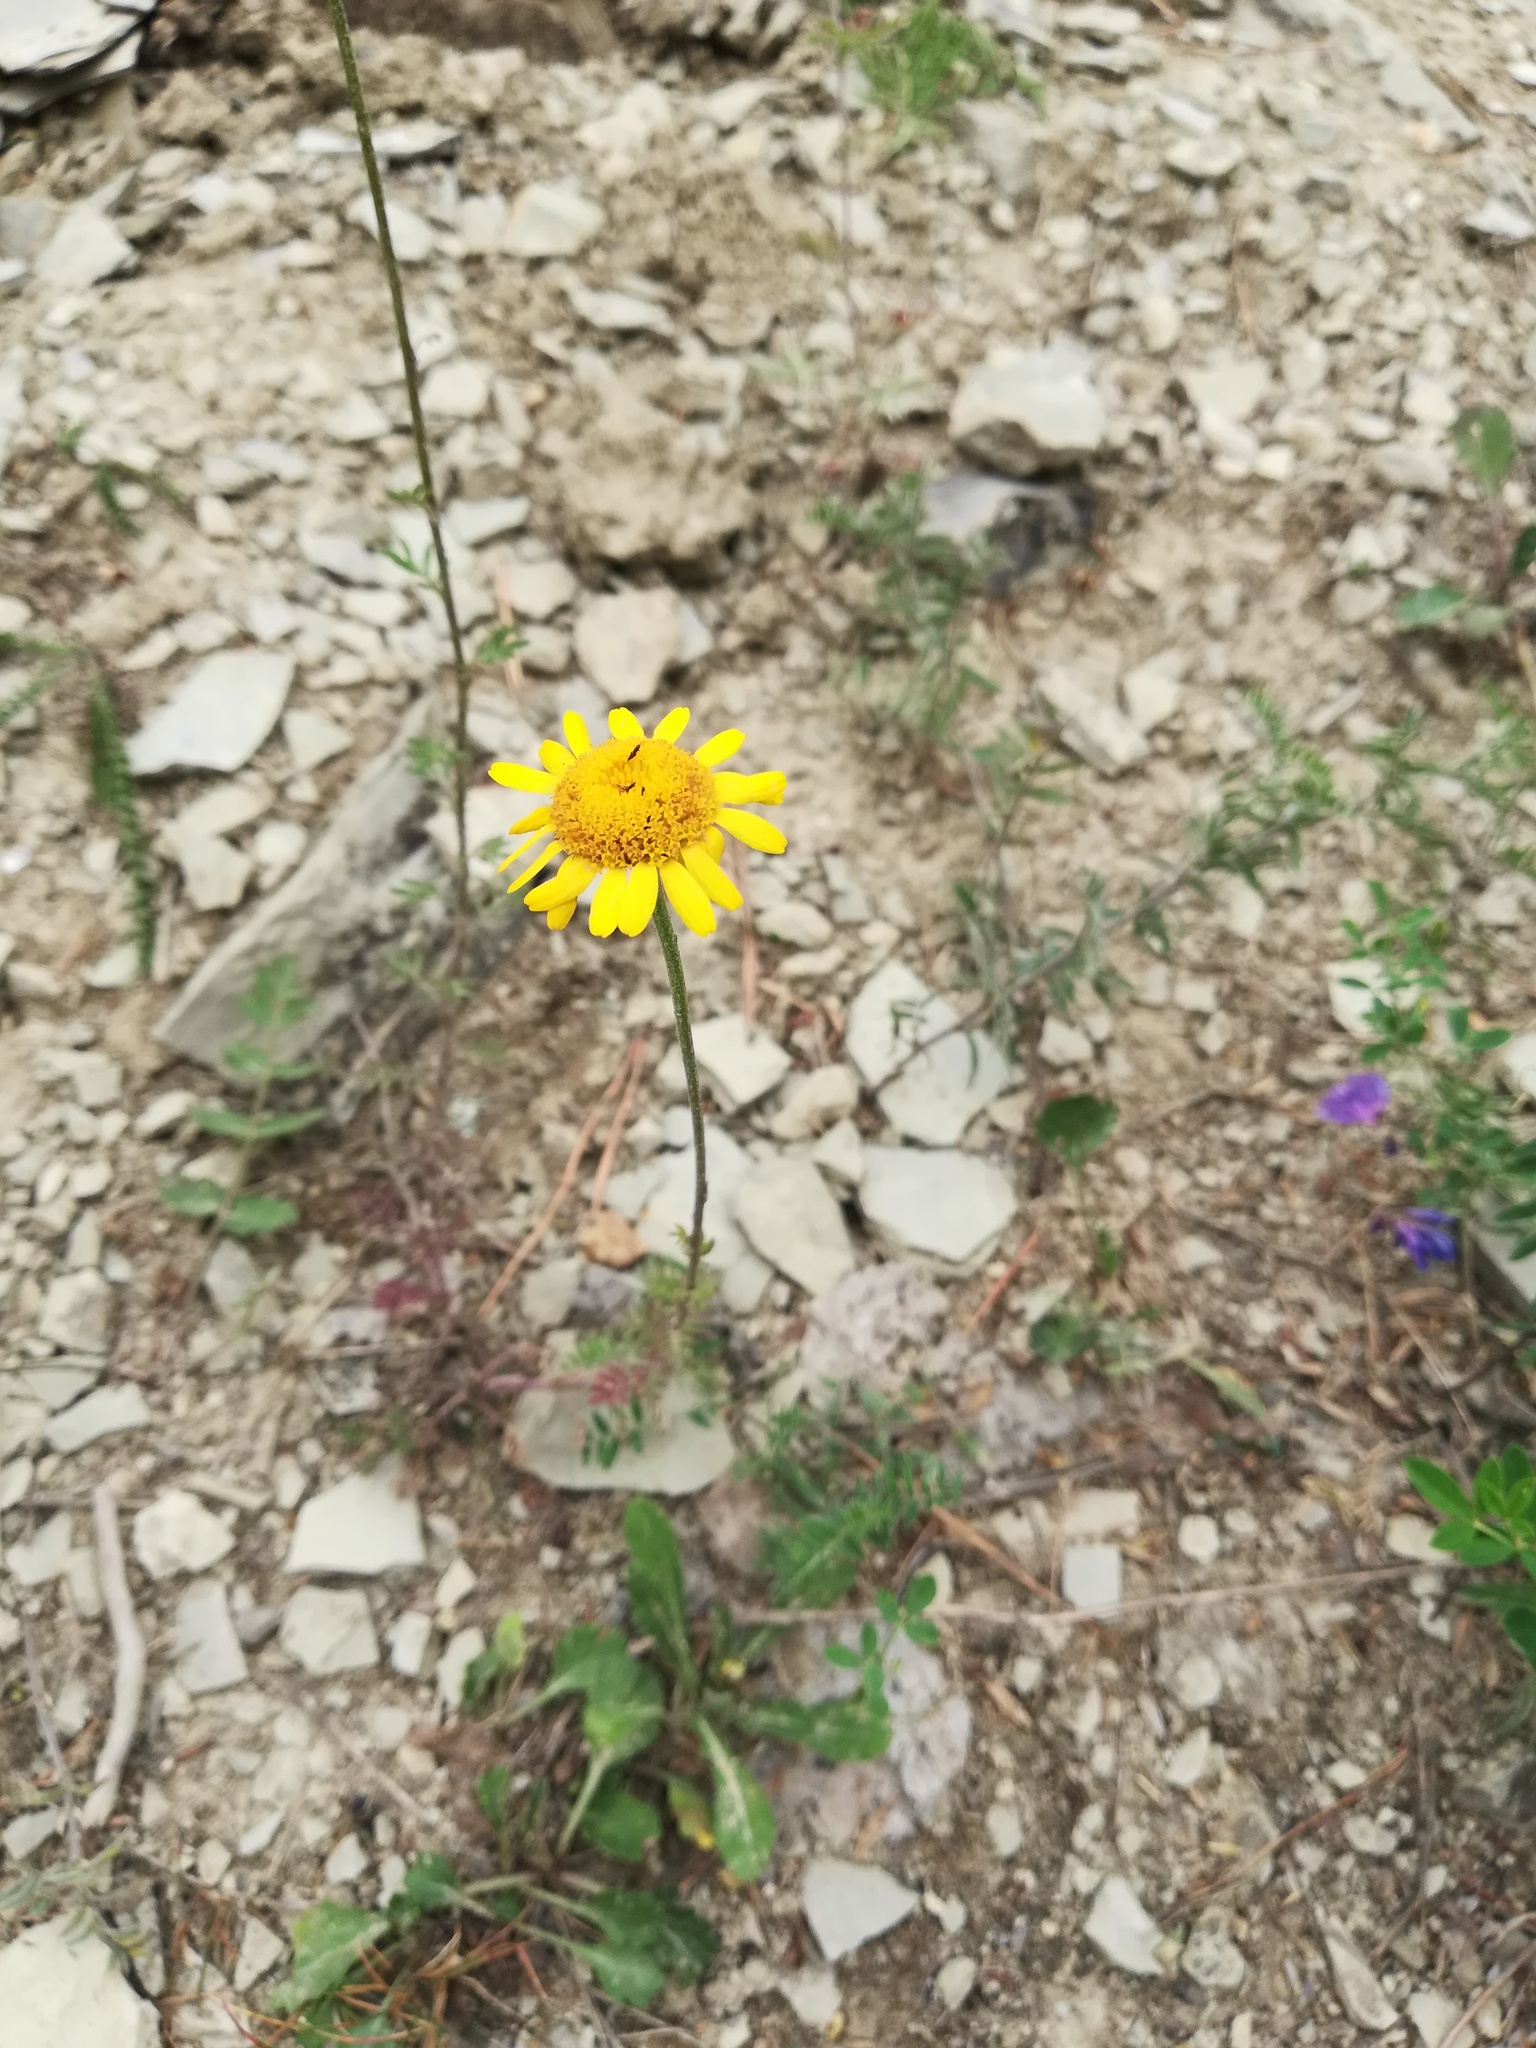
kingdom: Plantae
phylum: Tracheophyta
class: Magnoliopsida
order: Asterales
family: Asteraceae
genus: Cota
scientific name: Cota tinctoria
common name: Golden chamomile
